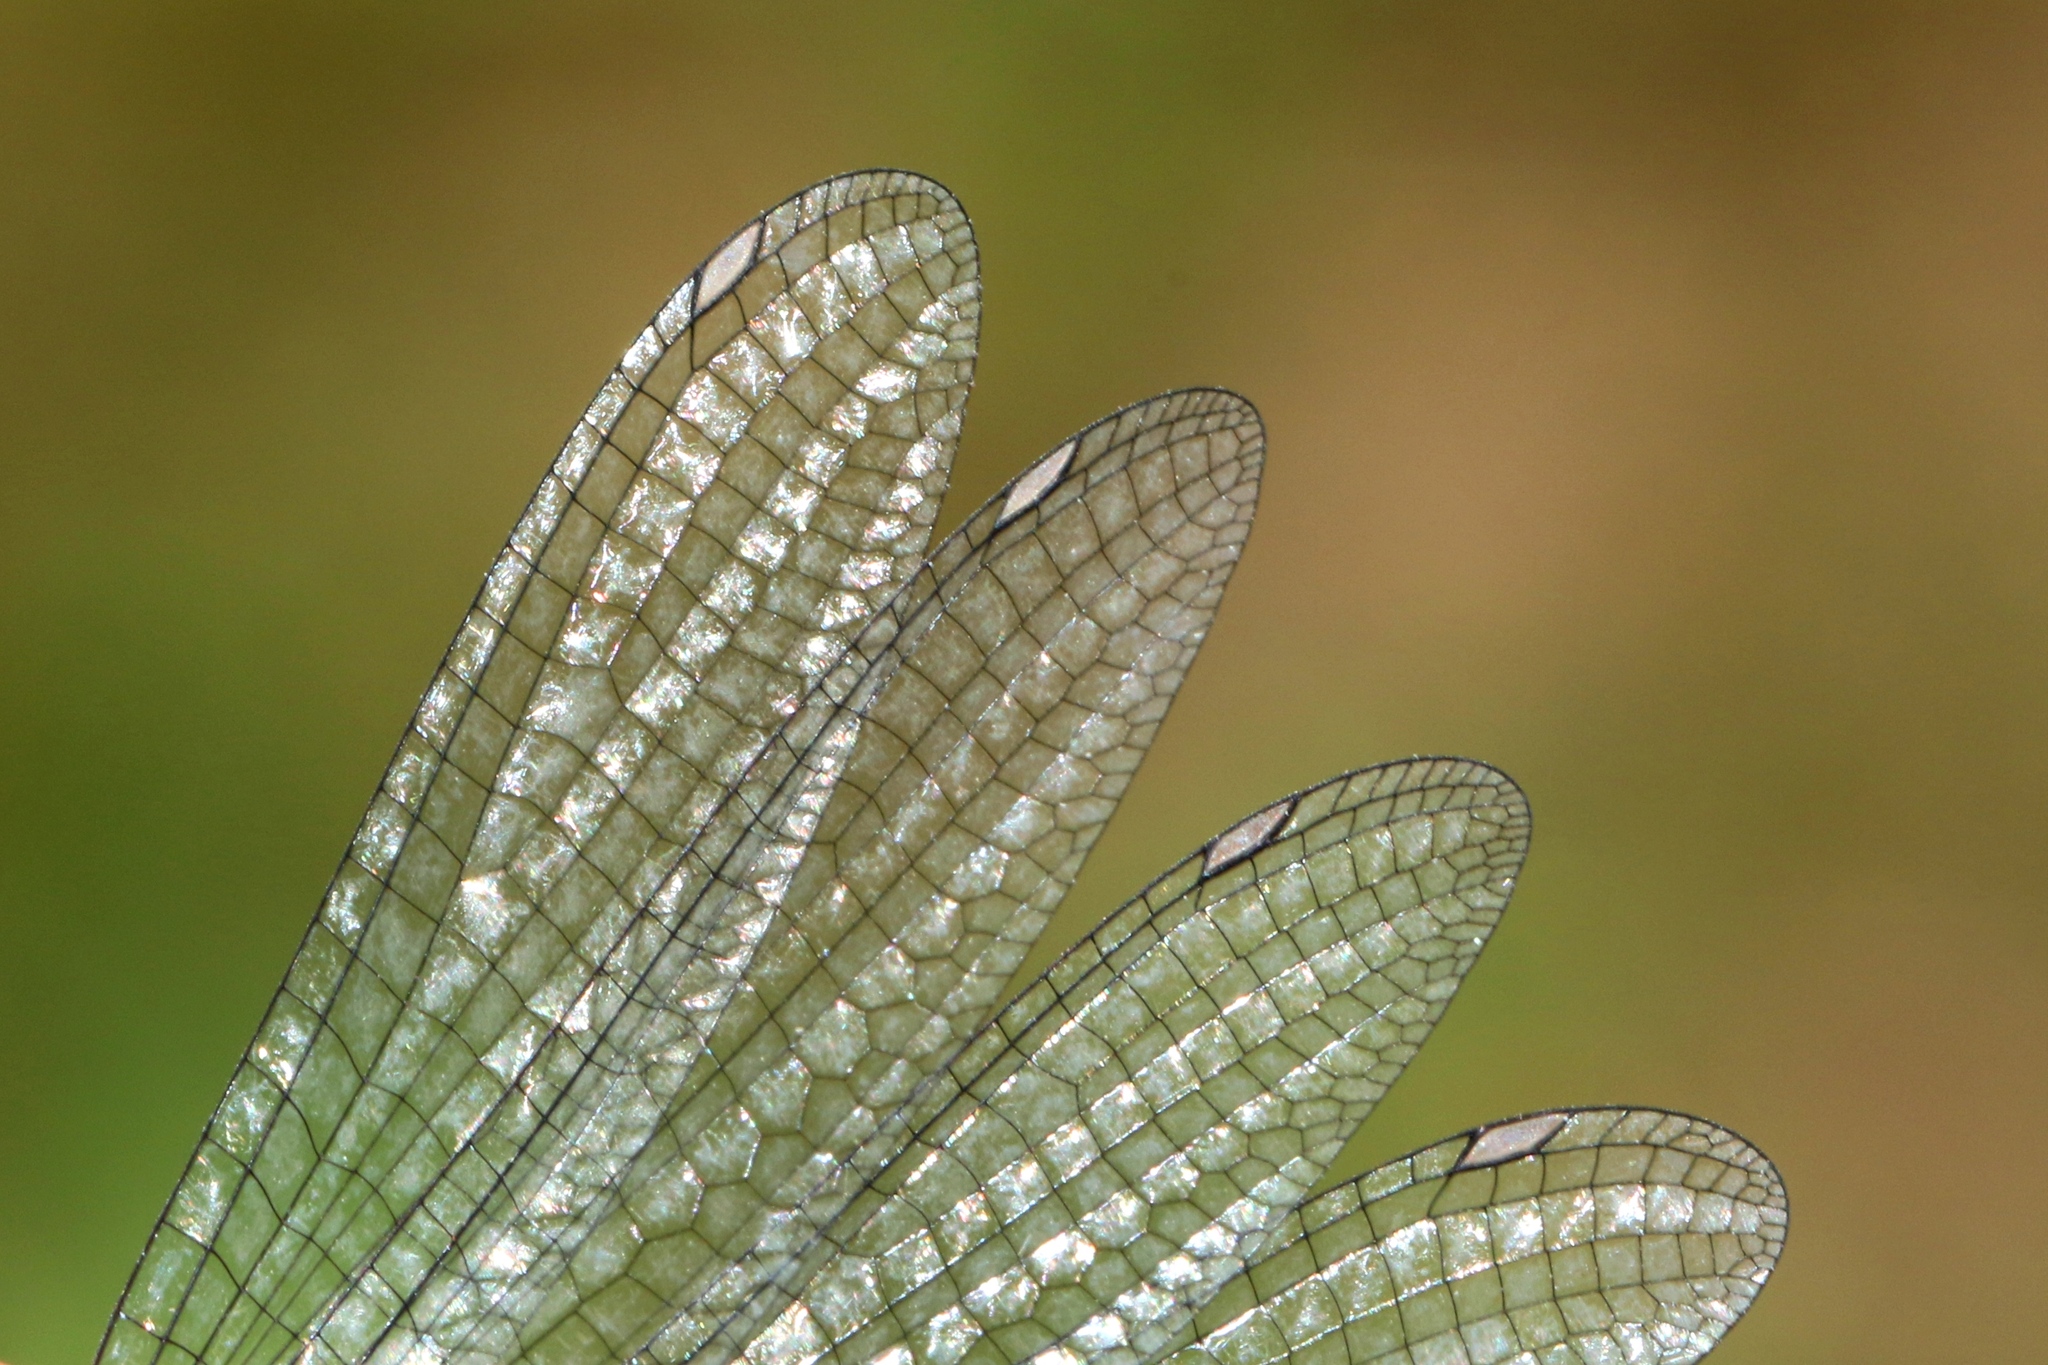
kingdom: Animalia
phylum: Arthropoda
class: Insecta
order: Odonata
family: Coenagrionidae
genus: Argia
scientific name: Argia moesta
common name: Powdered dancer
